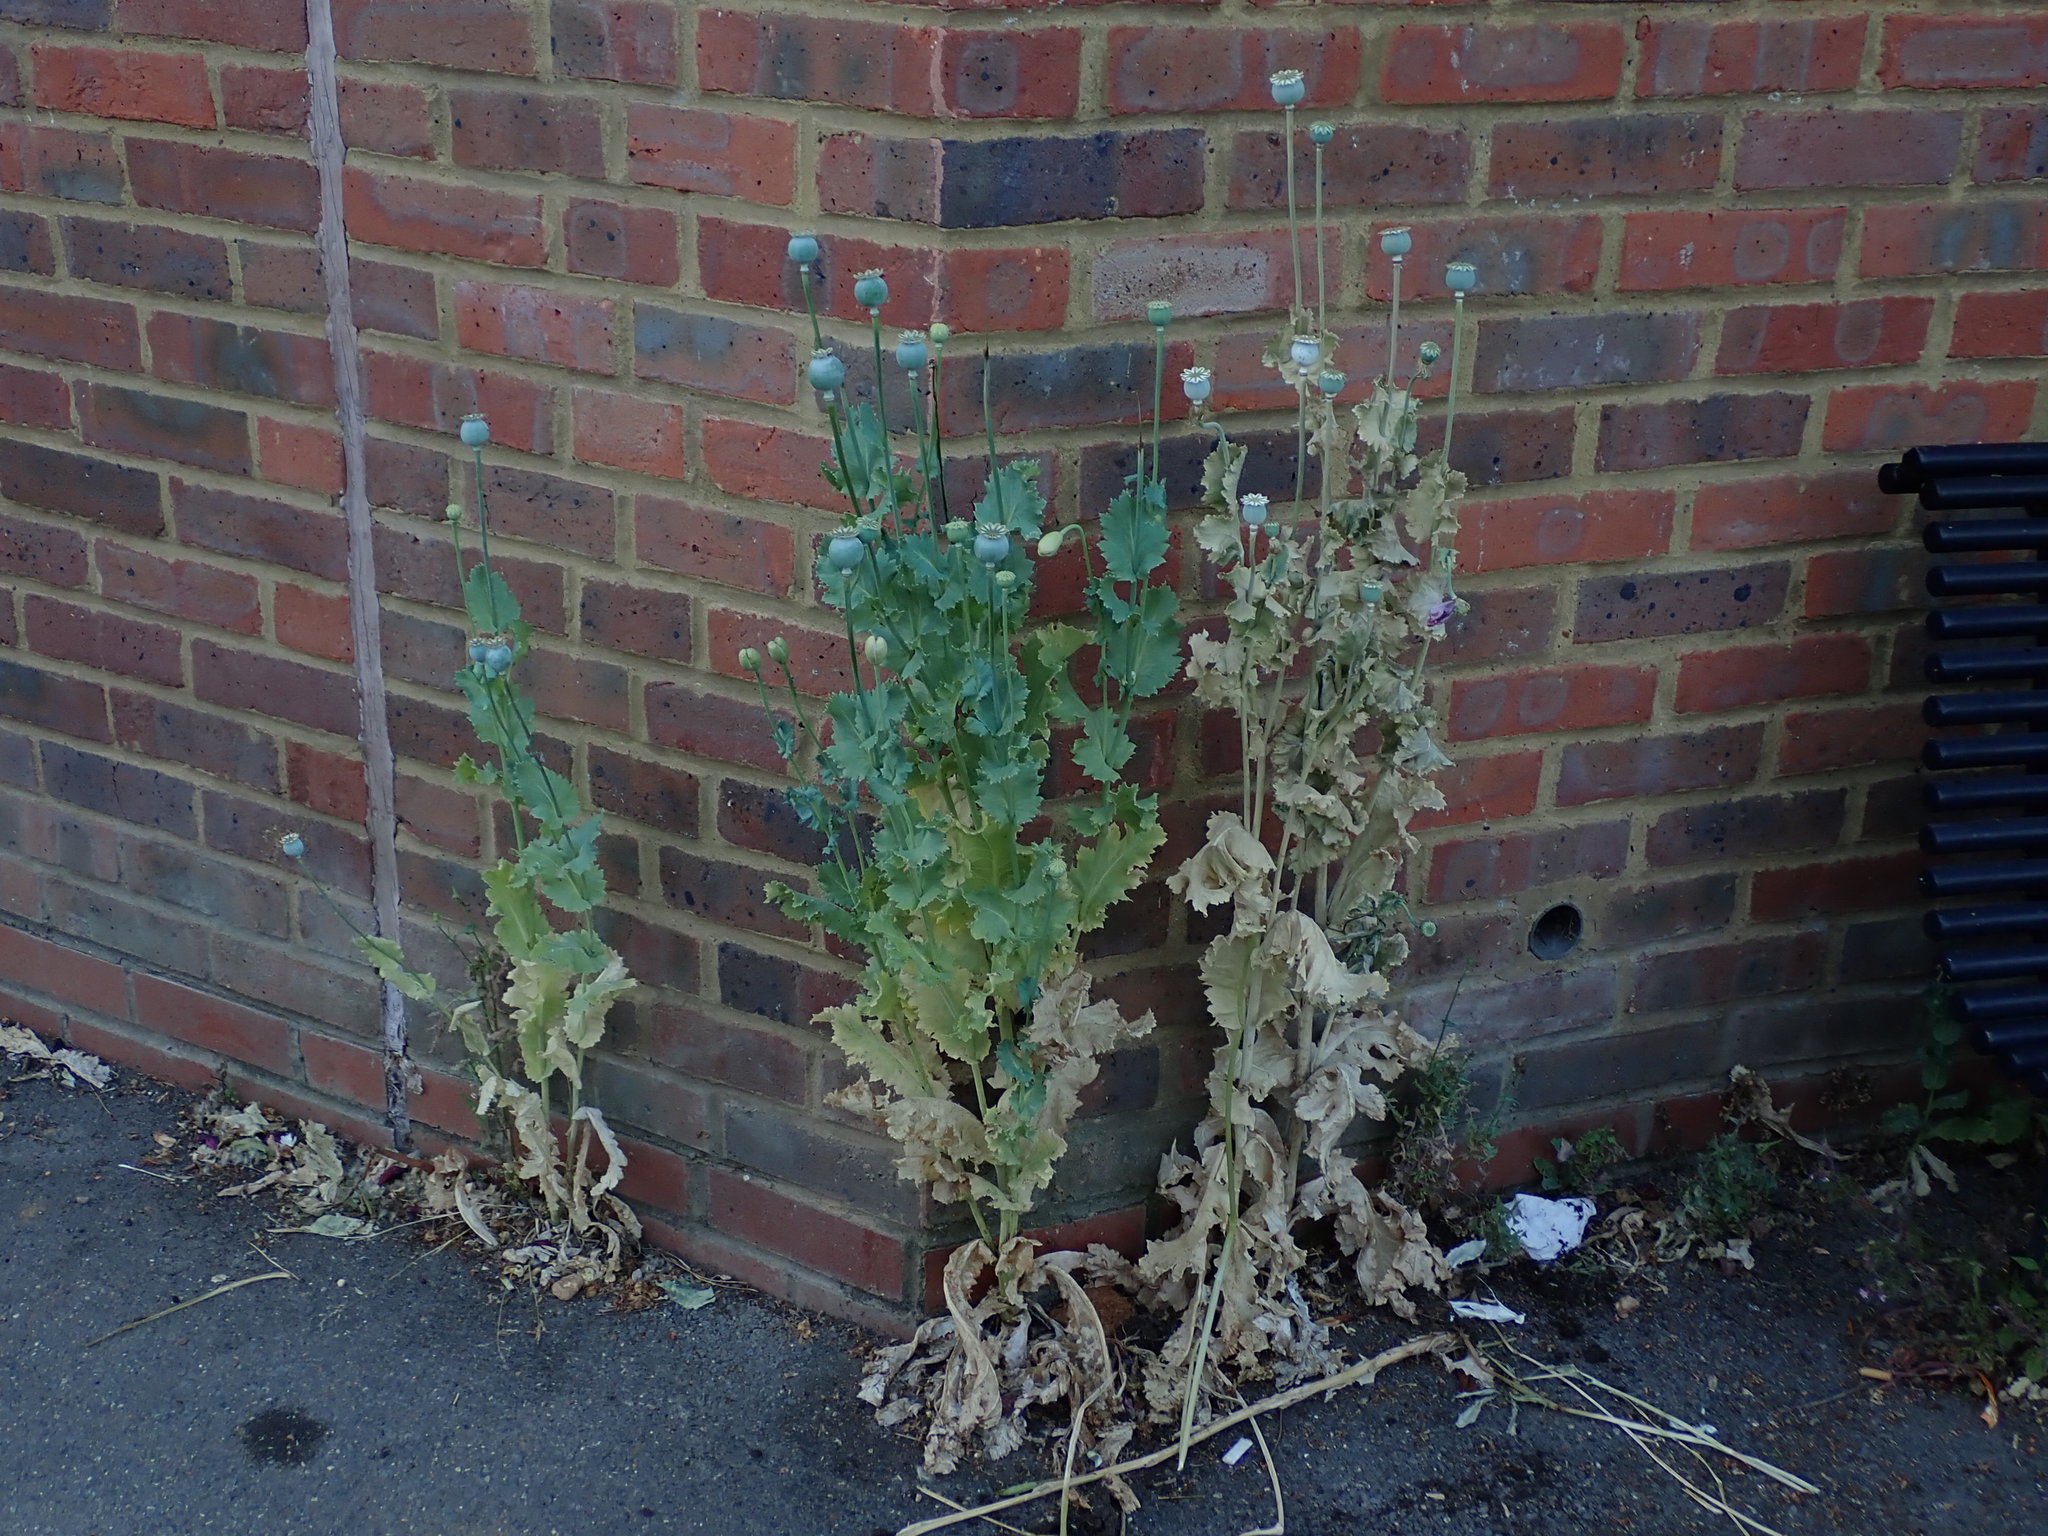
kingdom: Plantae
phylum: Tracheophyta
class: Magnoliopsida
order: Ranunculales
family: Papaveraceae
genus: Papaver
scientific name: Papaver somniferum
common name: Opium poppy
